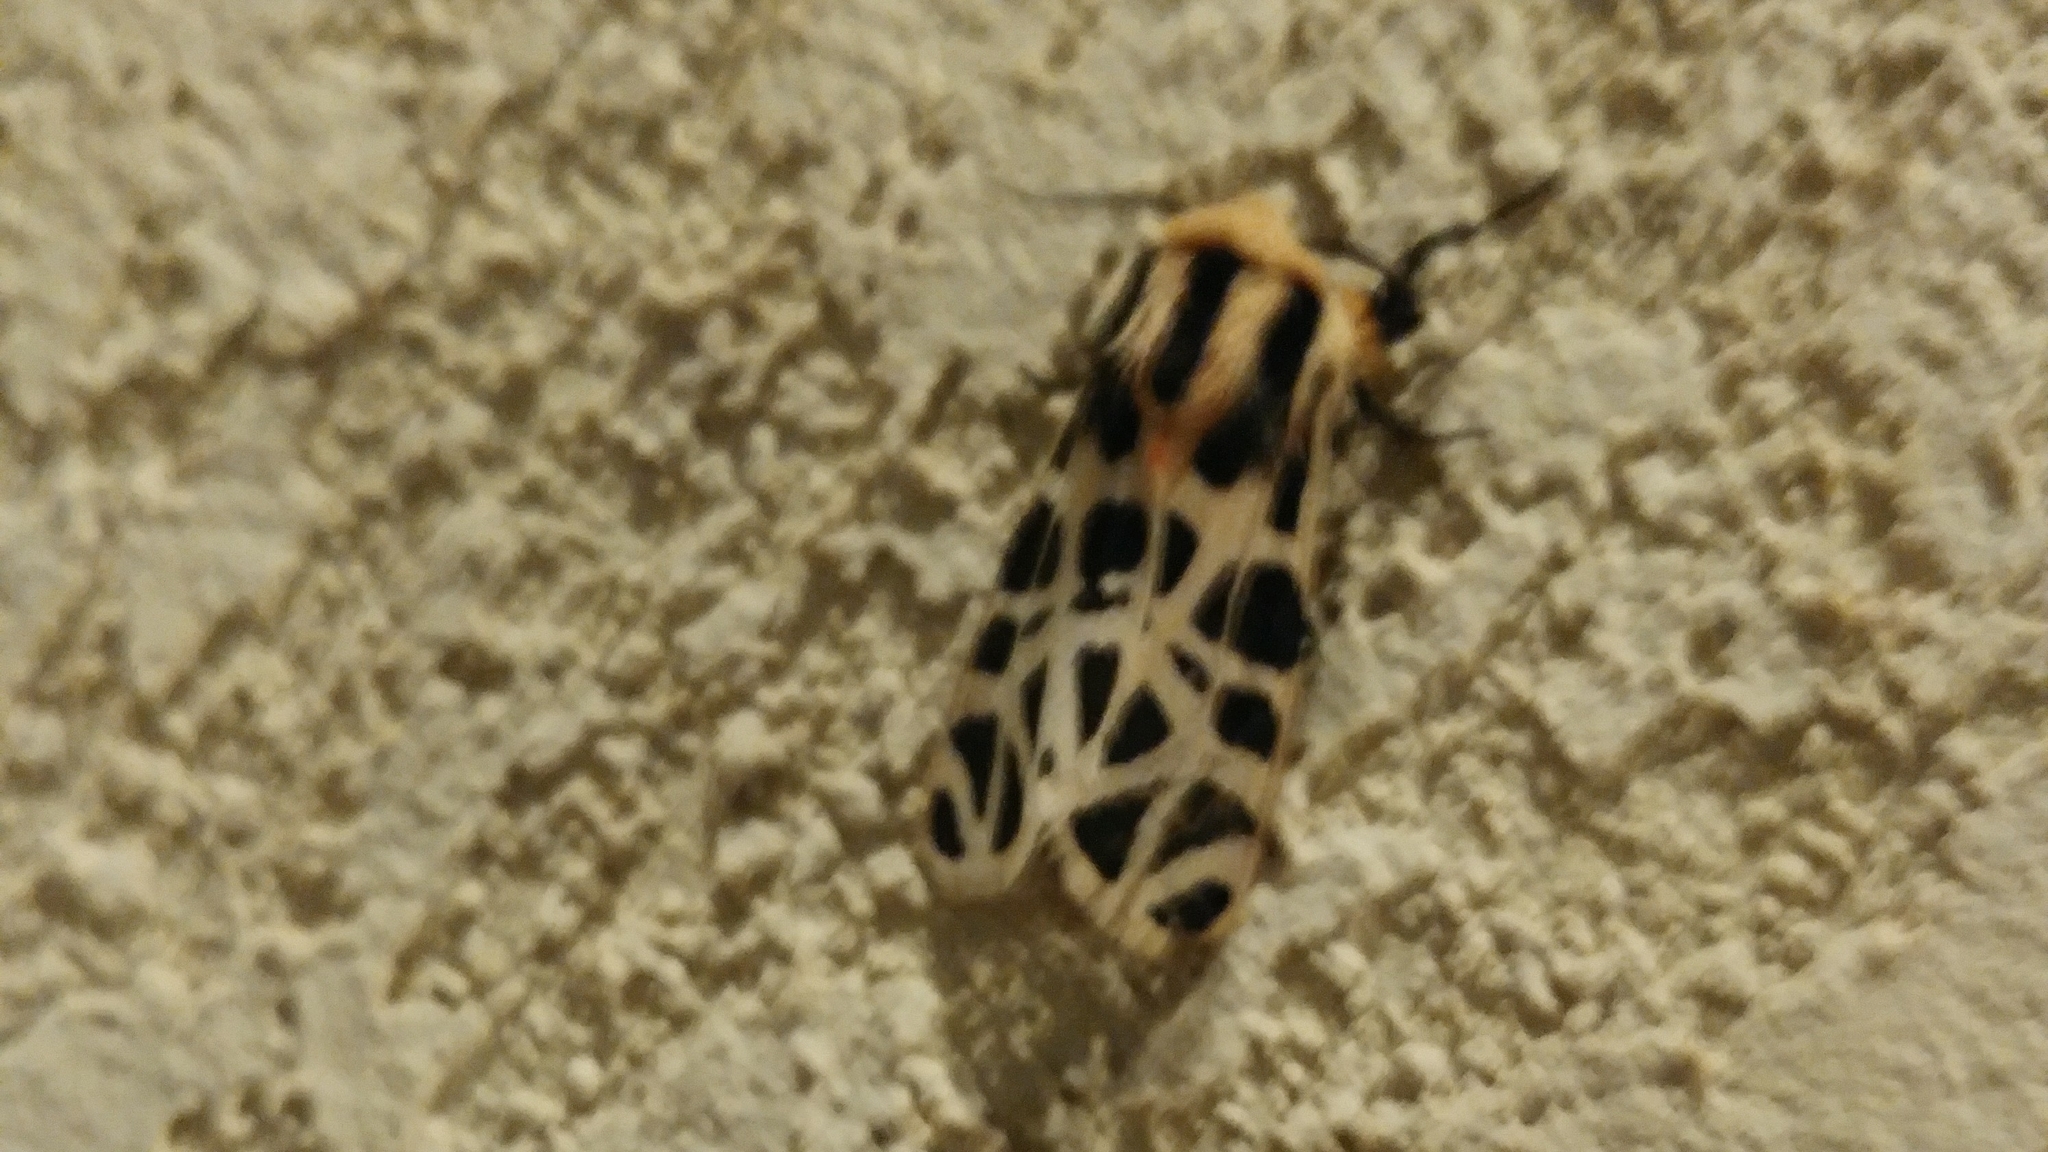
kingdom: Animalia
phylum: Arthropoda
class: Insecta
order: Lepidoptera
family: Erebidae
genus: Apantesis
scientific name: Apantesis
